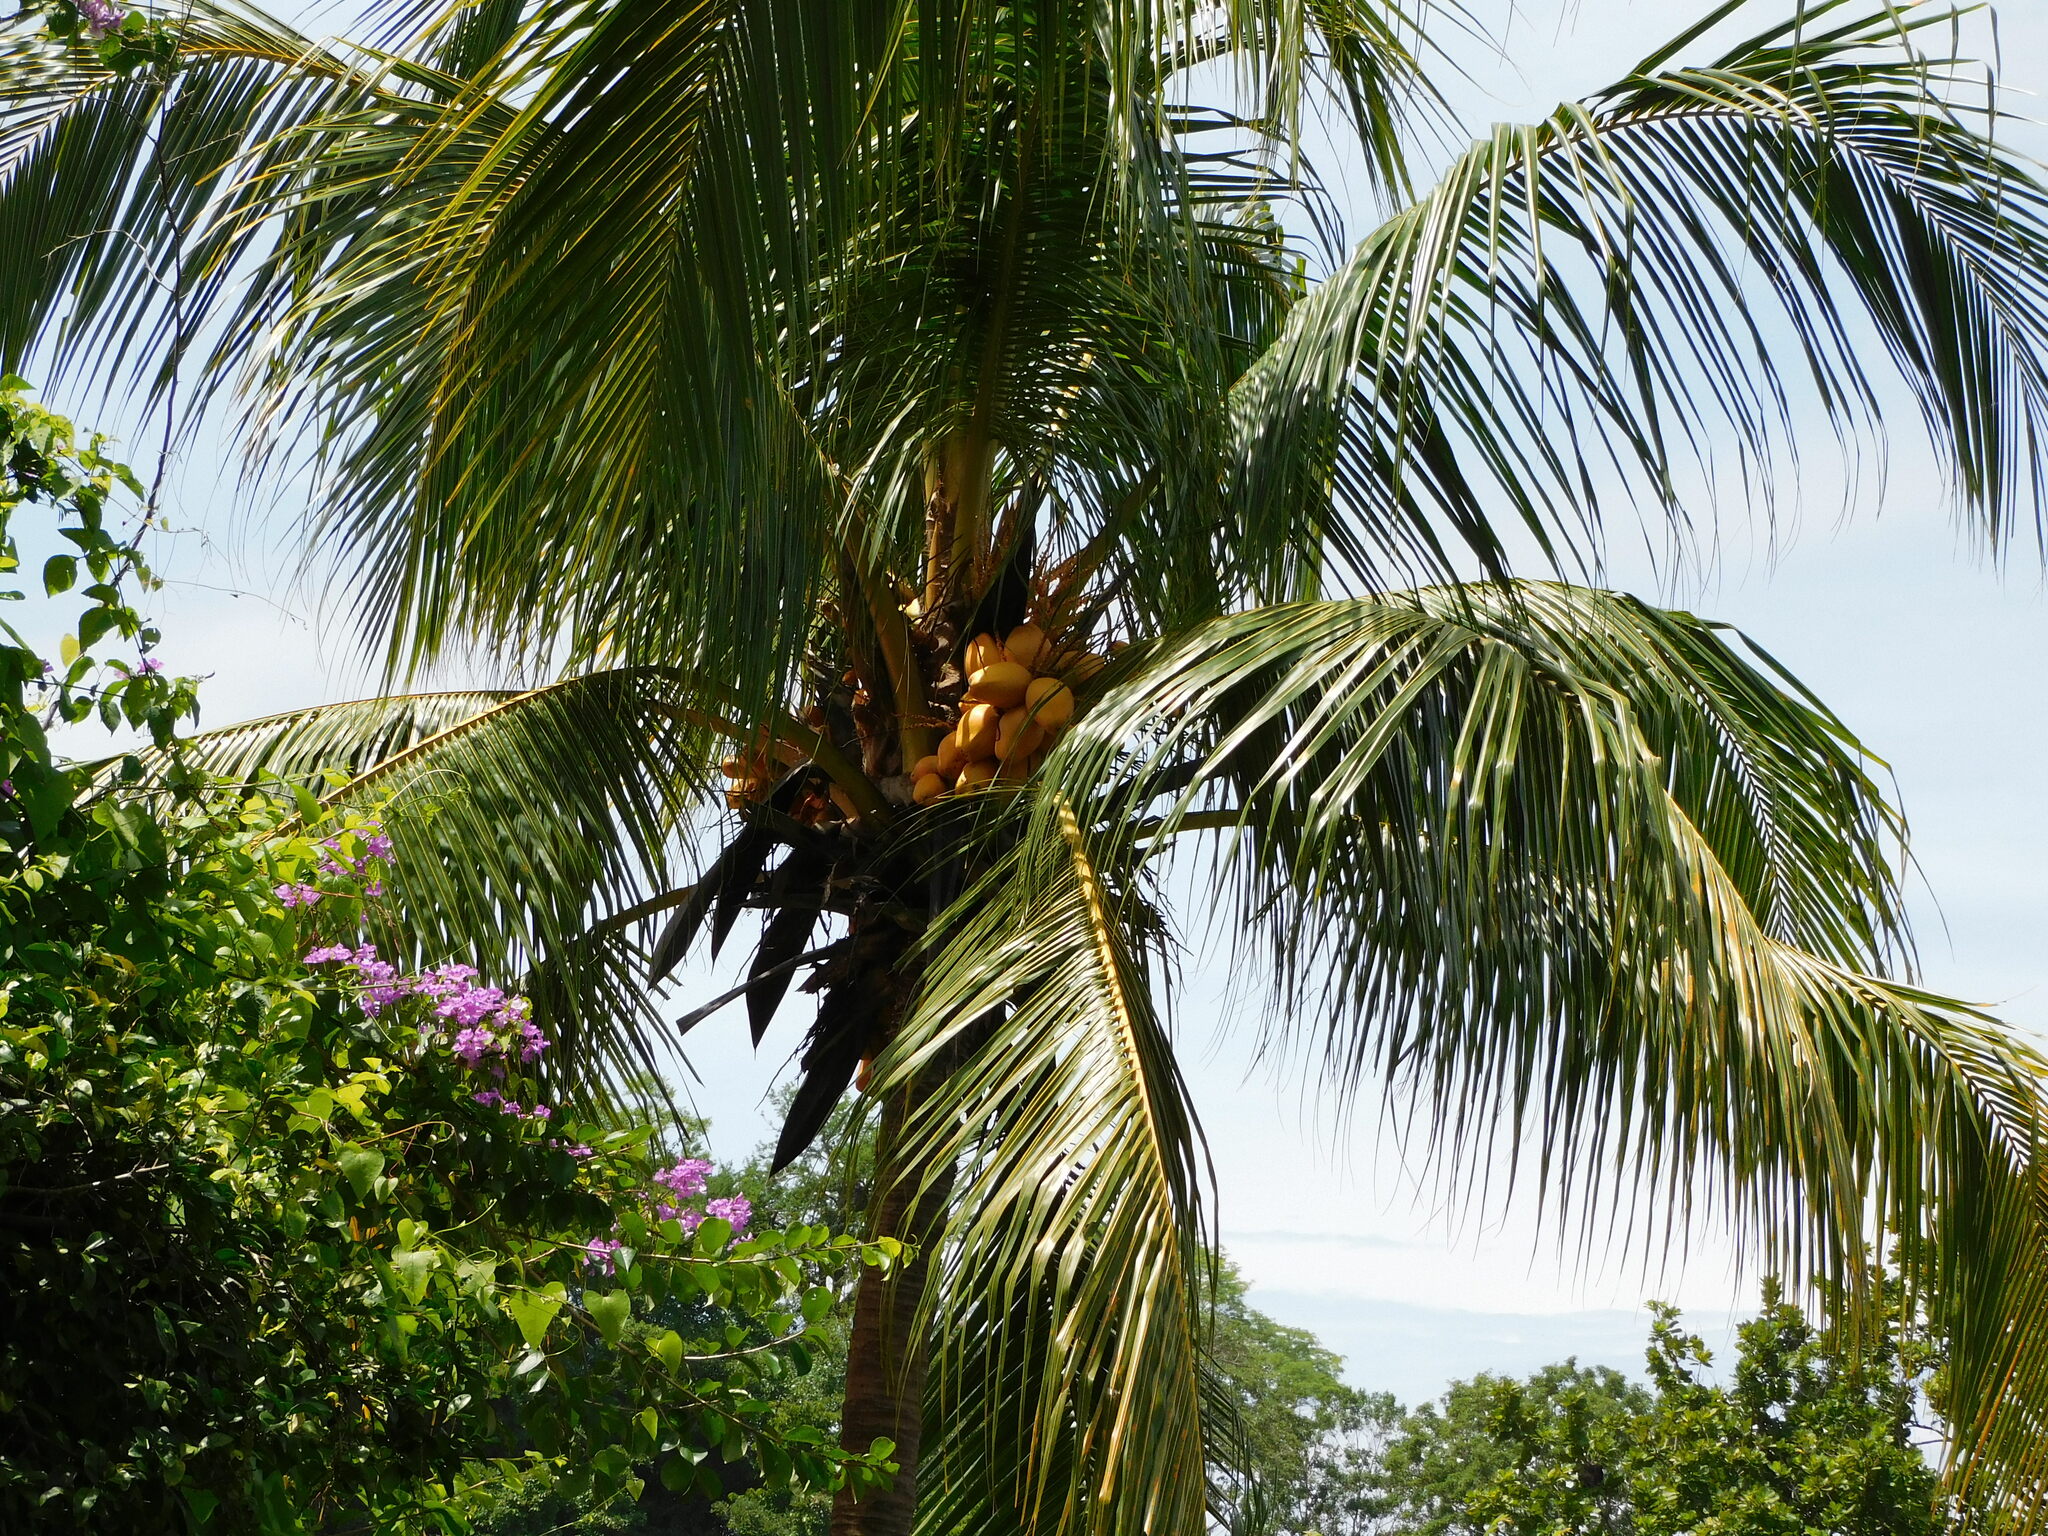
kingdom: Plantae
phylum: Tracheophyta
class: Liliopsida
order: Arecales
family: Arecaceae
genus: Cocos
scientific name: Cocos nucifera
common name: Coconut palm
